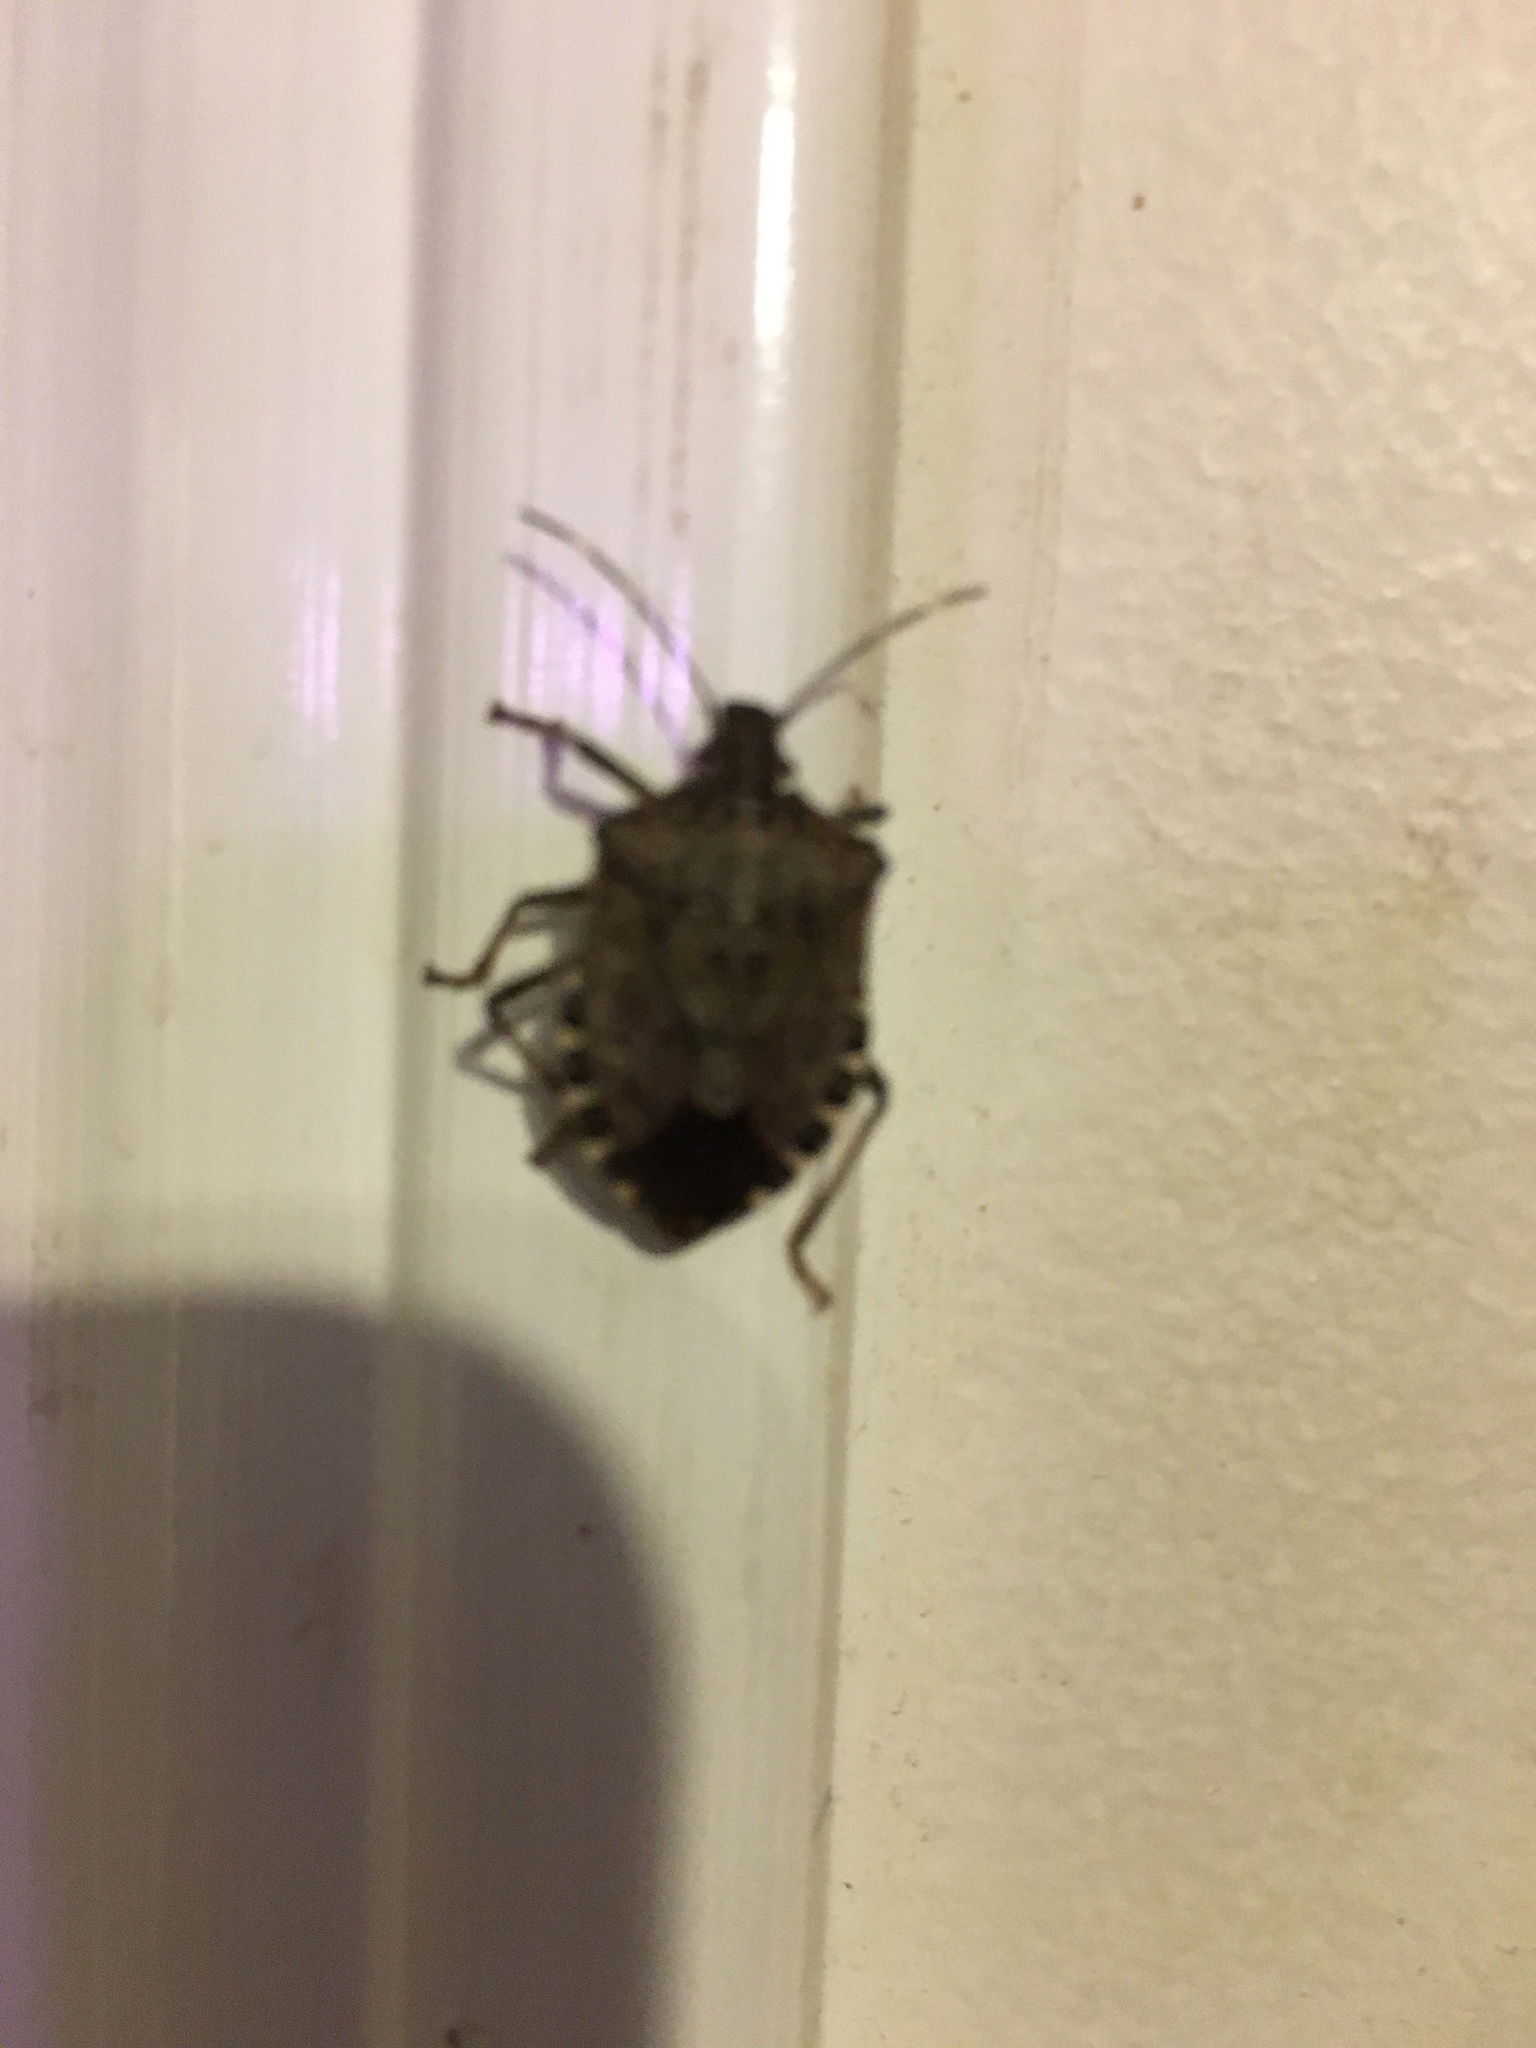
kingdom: Animalia
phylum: Arthropoda
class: Insecta
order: Hemiptera
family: Pentatomidae
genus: Halyomorpha
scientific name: Halyomorpha halys
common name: Brown marmorated stink bug
